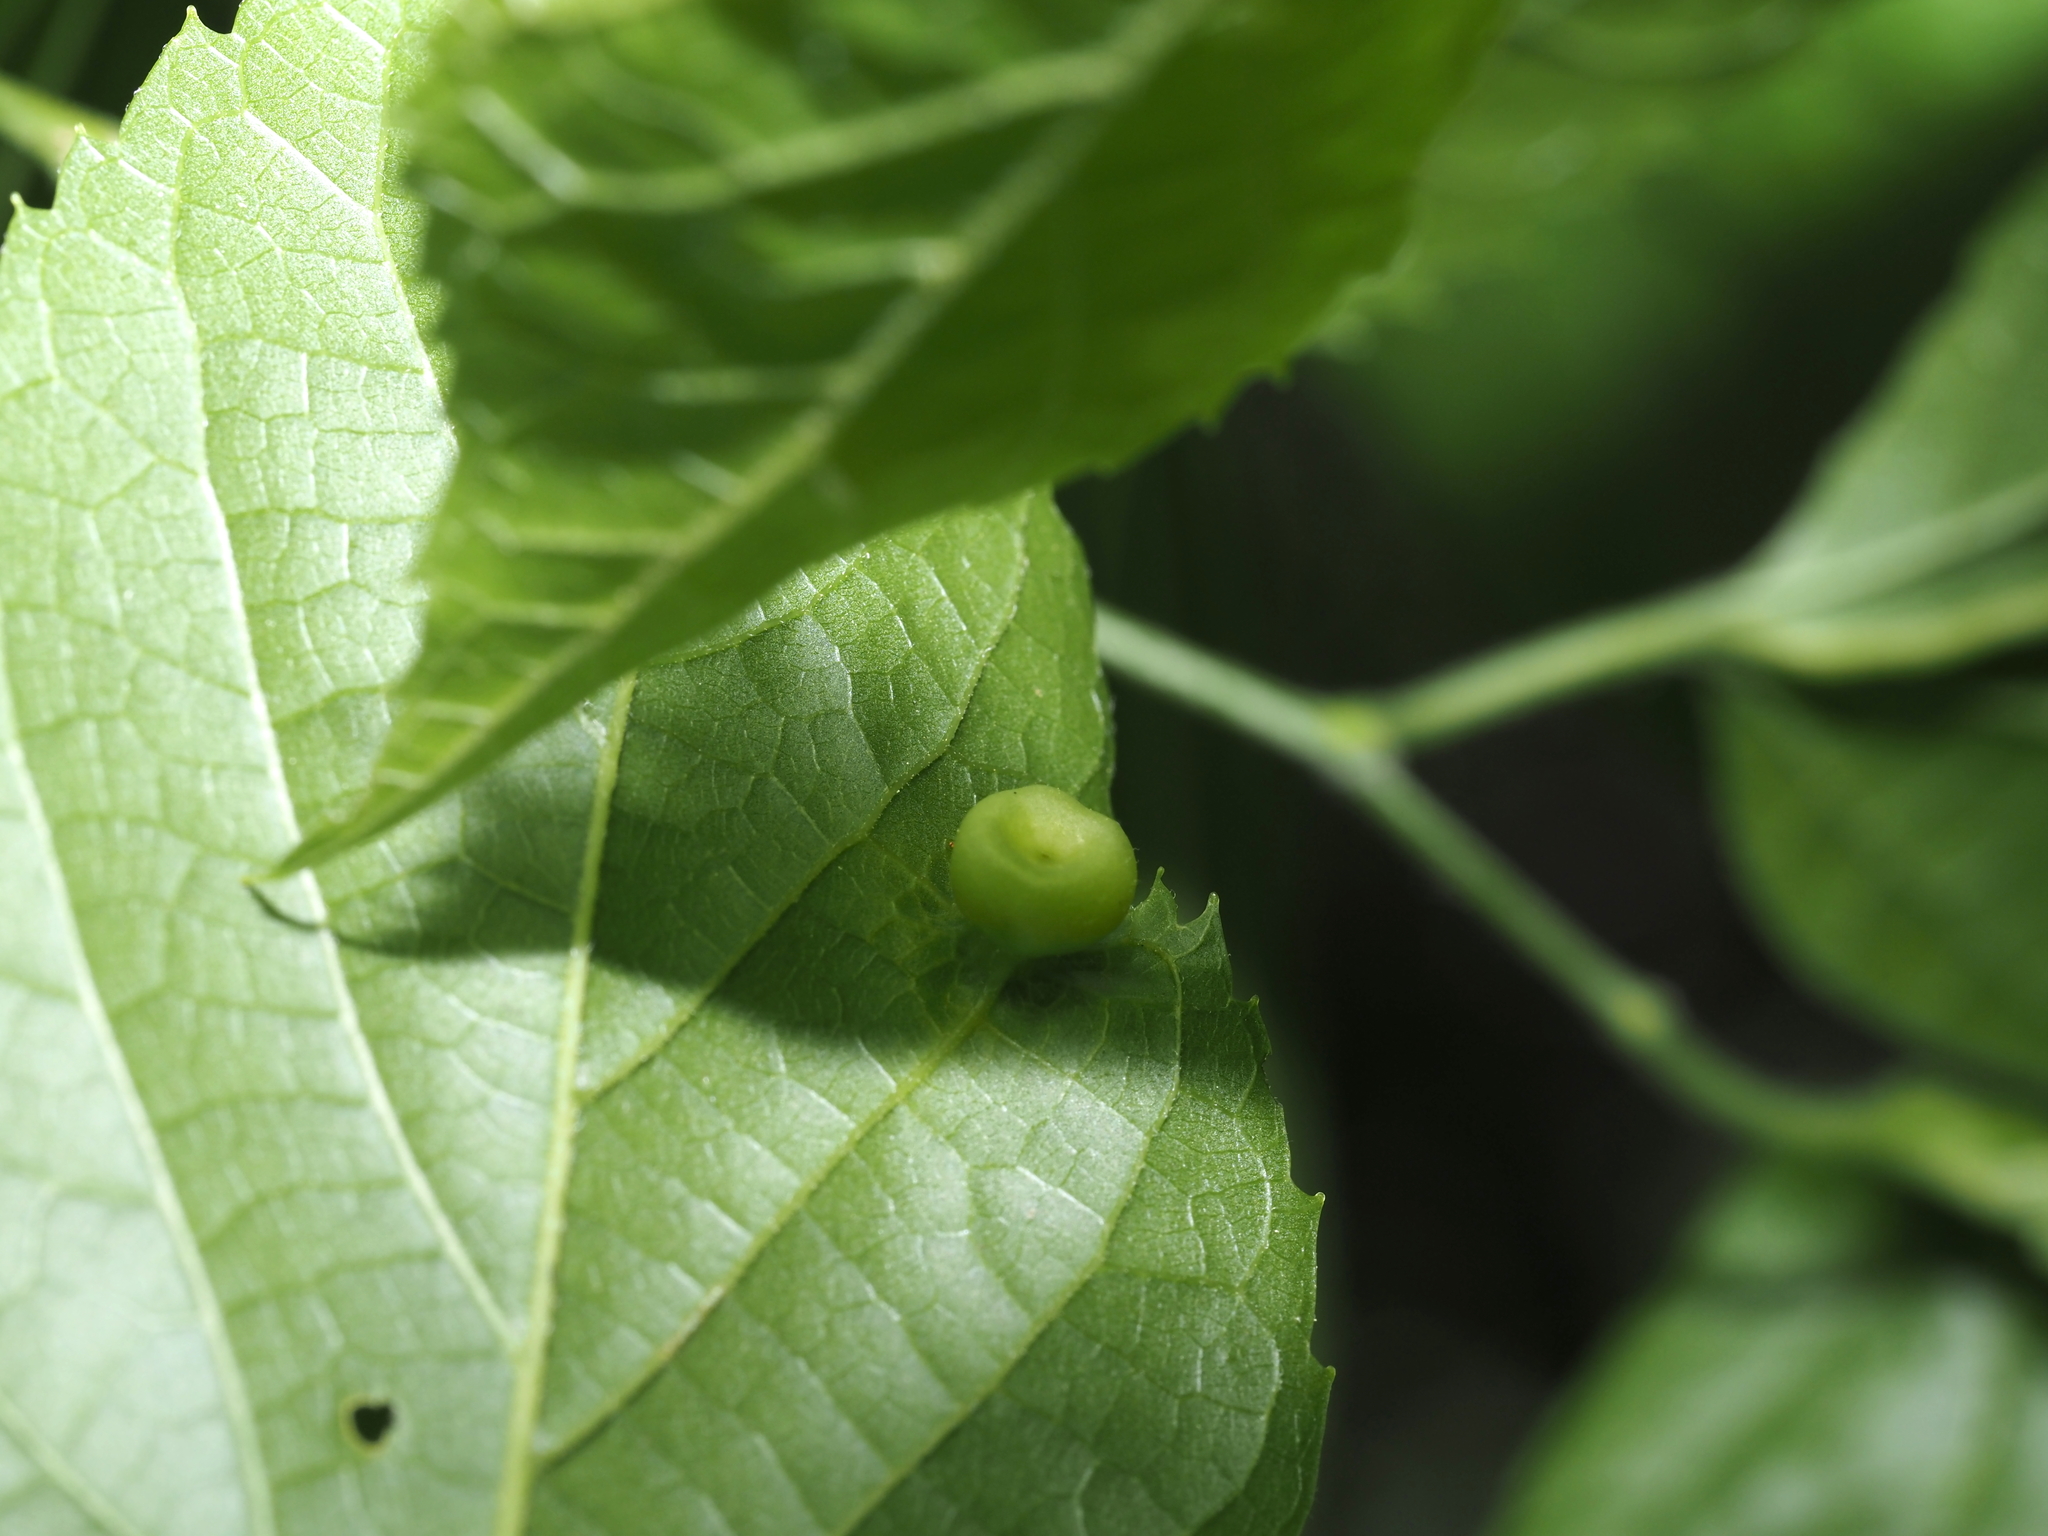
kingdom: Animalia
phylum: Arthropoda
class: Insecta
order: Hemiptera
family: Aphalaridae
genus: Pachypsylla
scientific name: Pachypsylla celtidismamma
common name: Hackberry nipplegall psyllid
